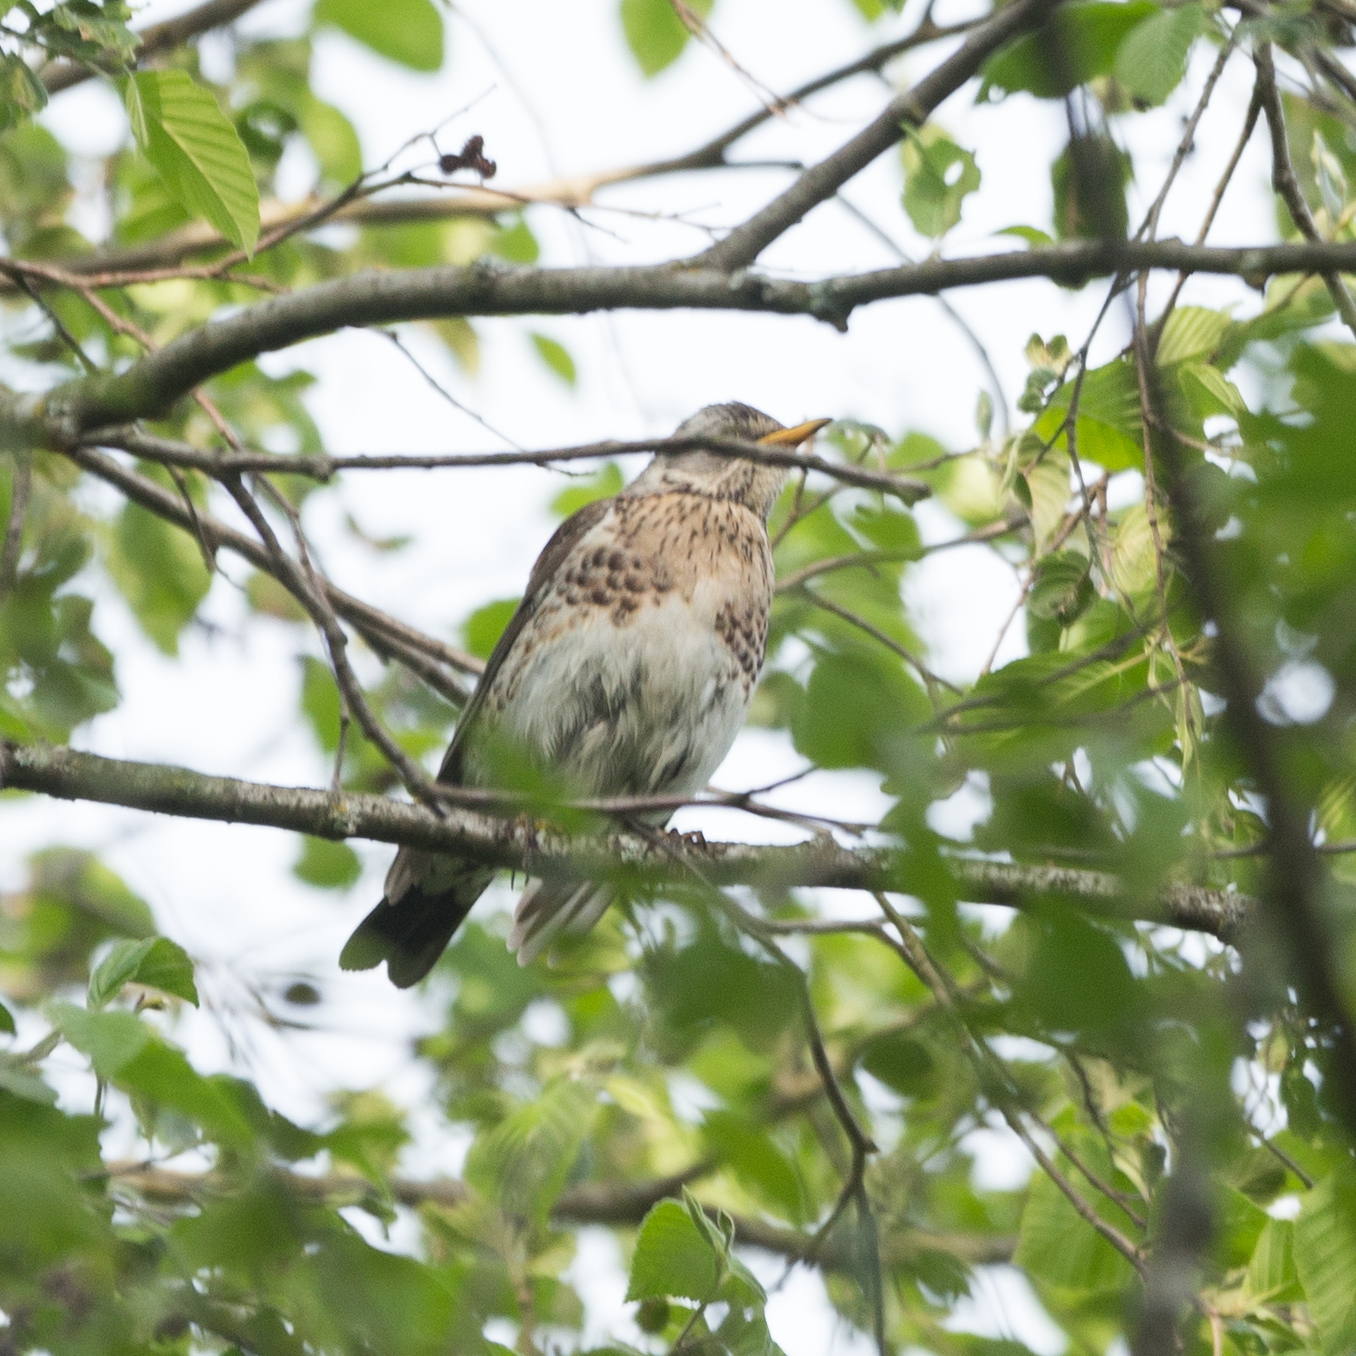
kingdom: Animalia
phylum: Chordata
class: Aves
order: Passeriformes
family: Turdidae
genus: Turdus
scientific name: Turdus pilaris
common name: Fieldfare
